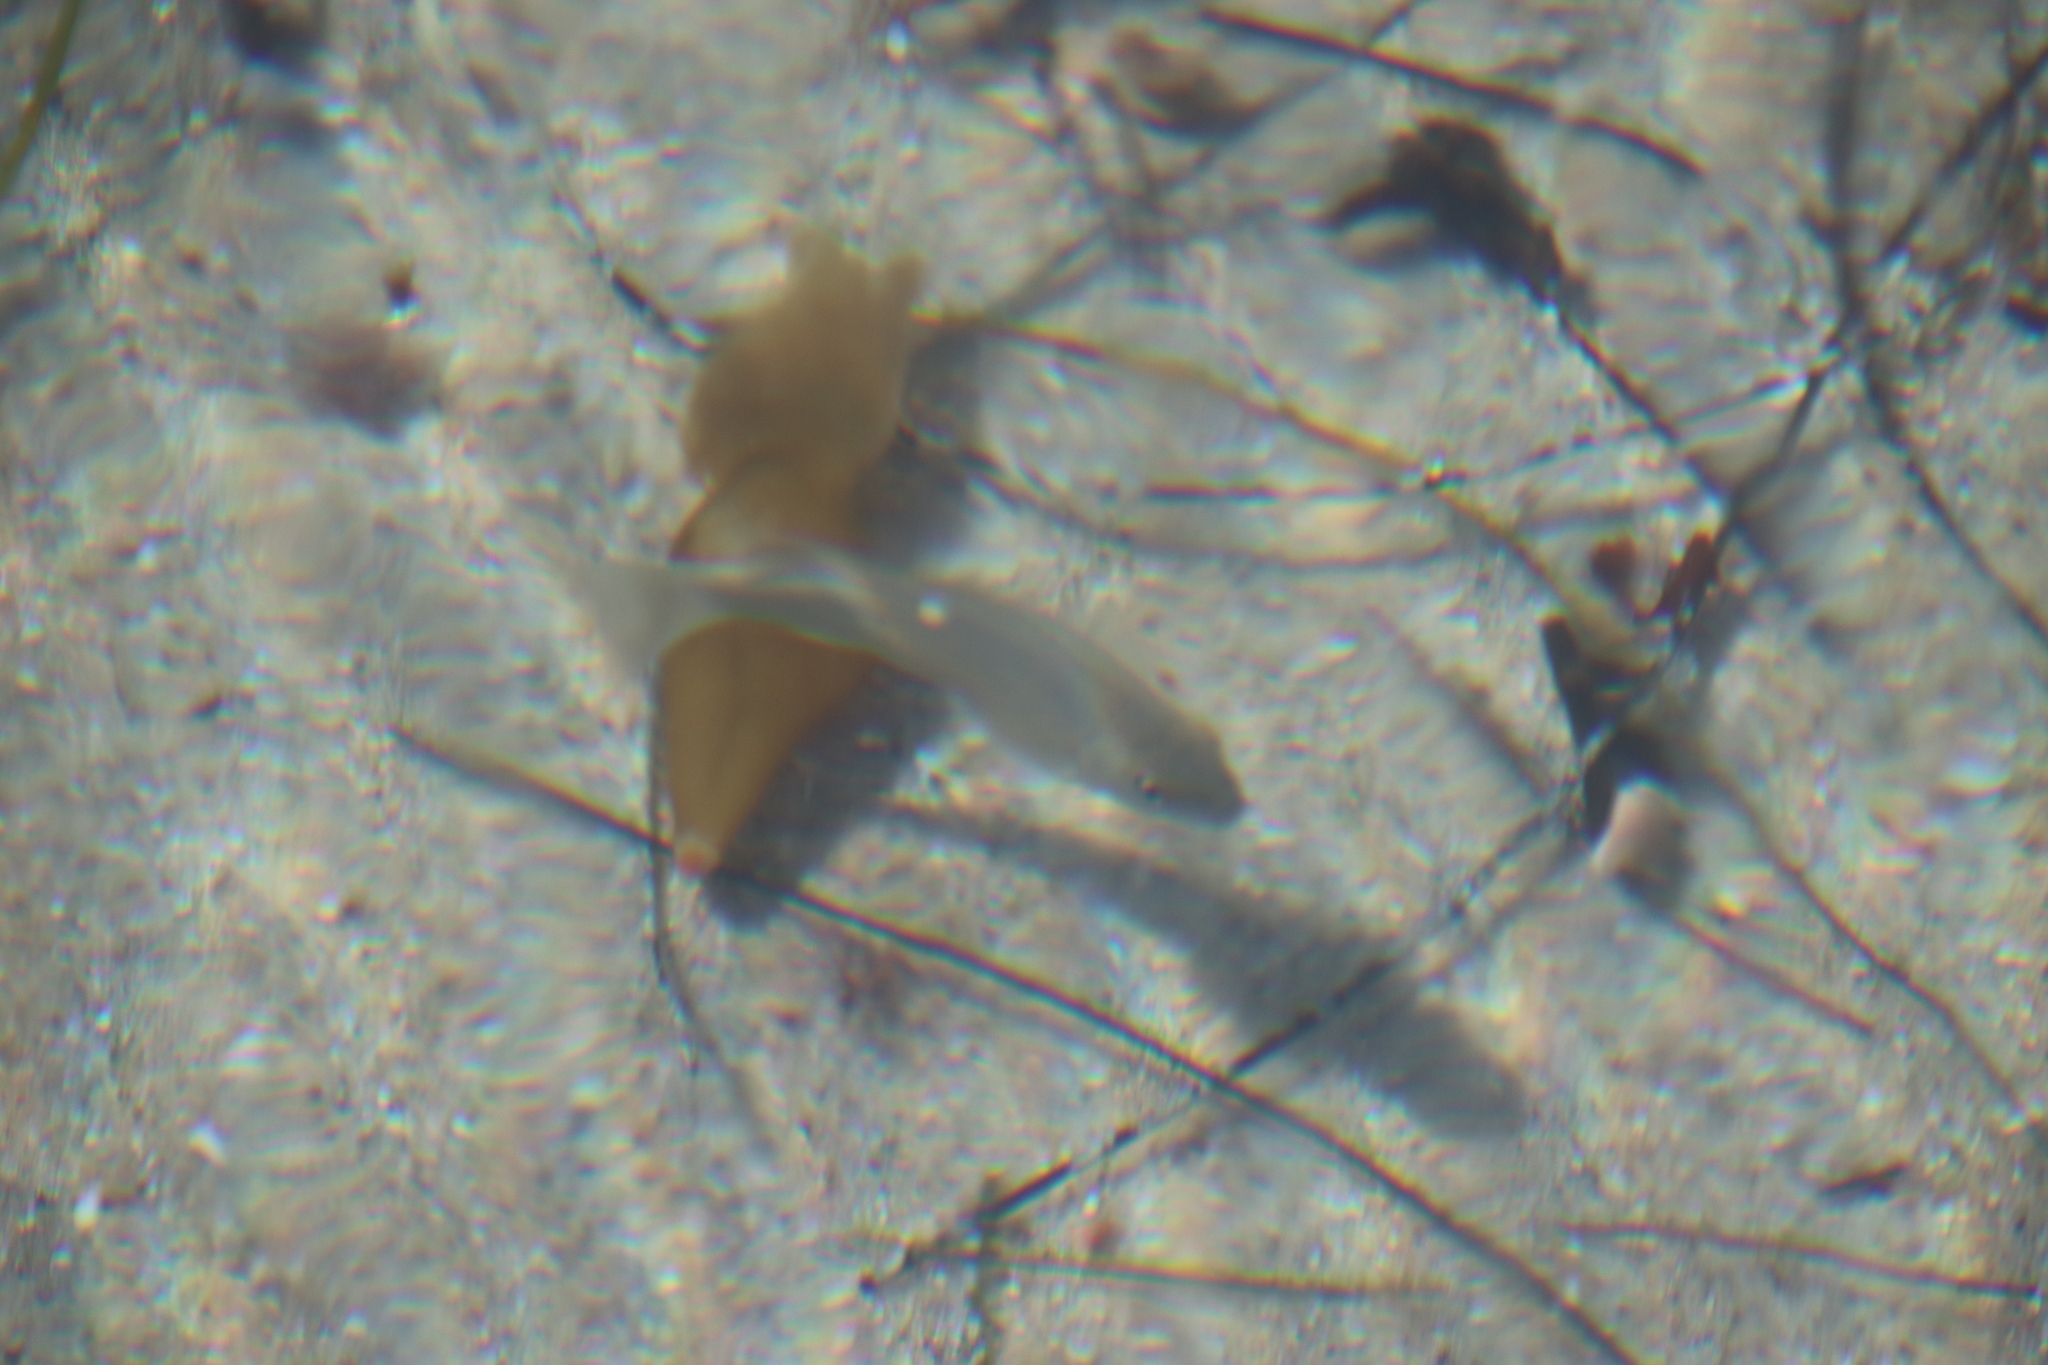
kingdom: Animalia
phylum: Chordata
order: Perciformes
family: Kyphosidae
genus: Girella
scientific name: Girella nigricans
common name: Opaleye
